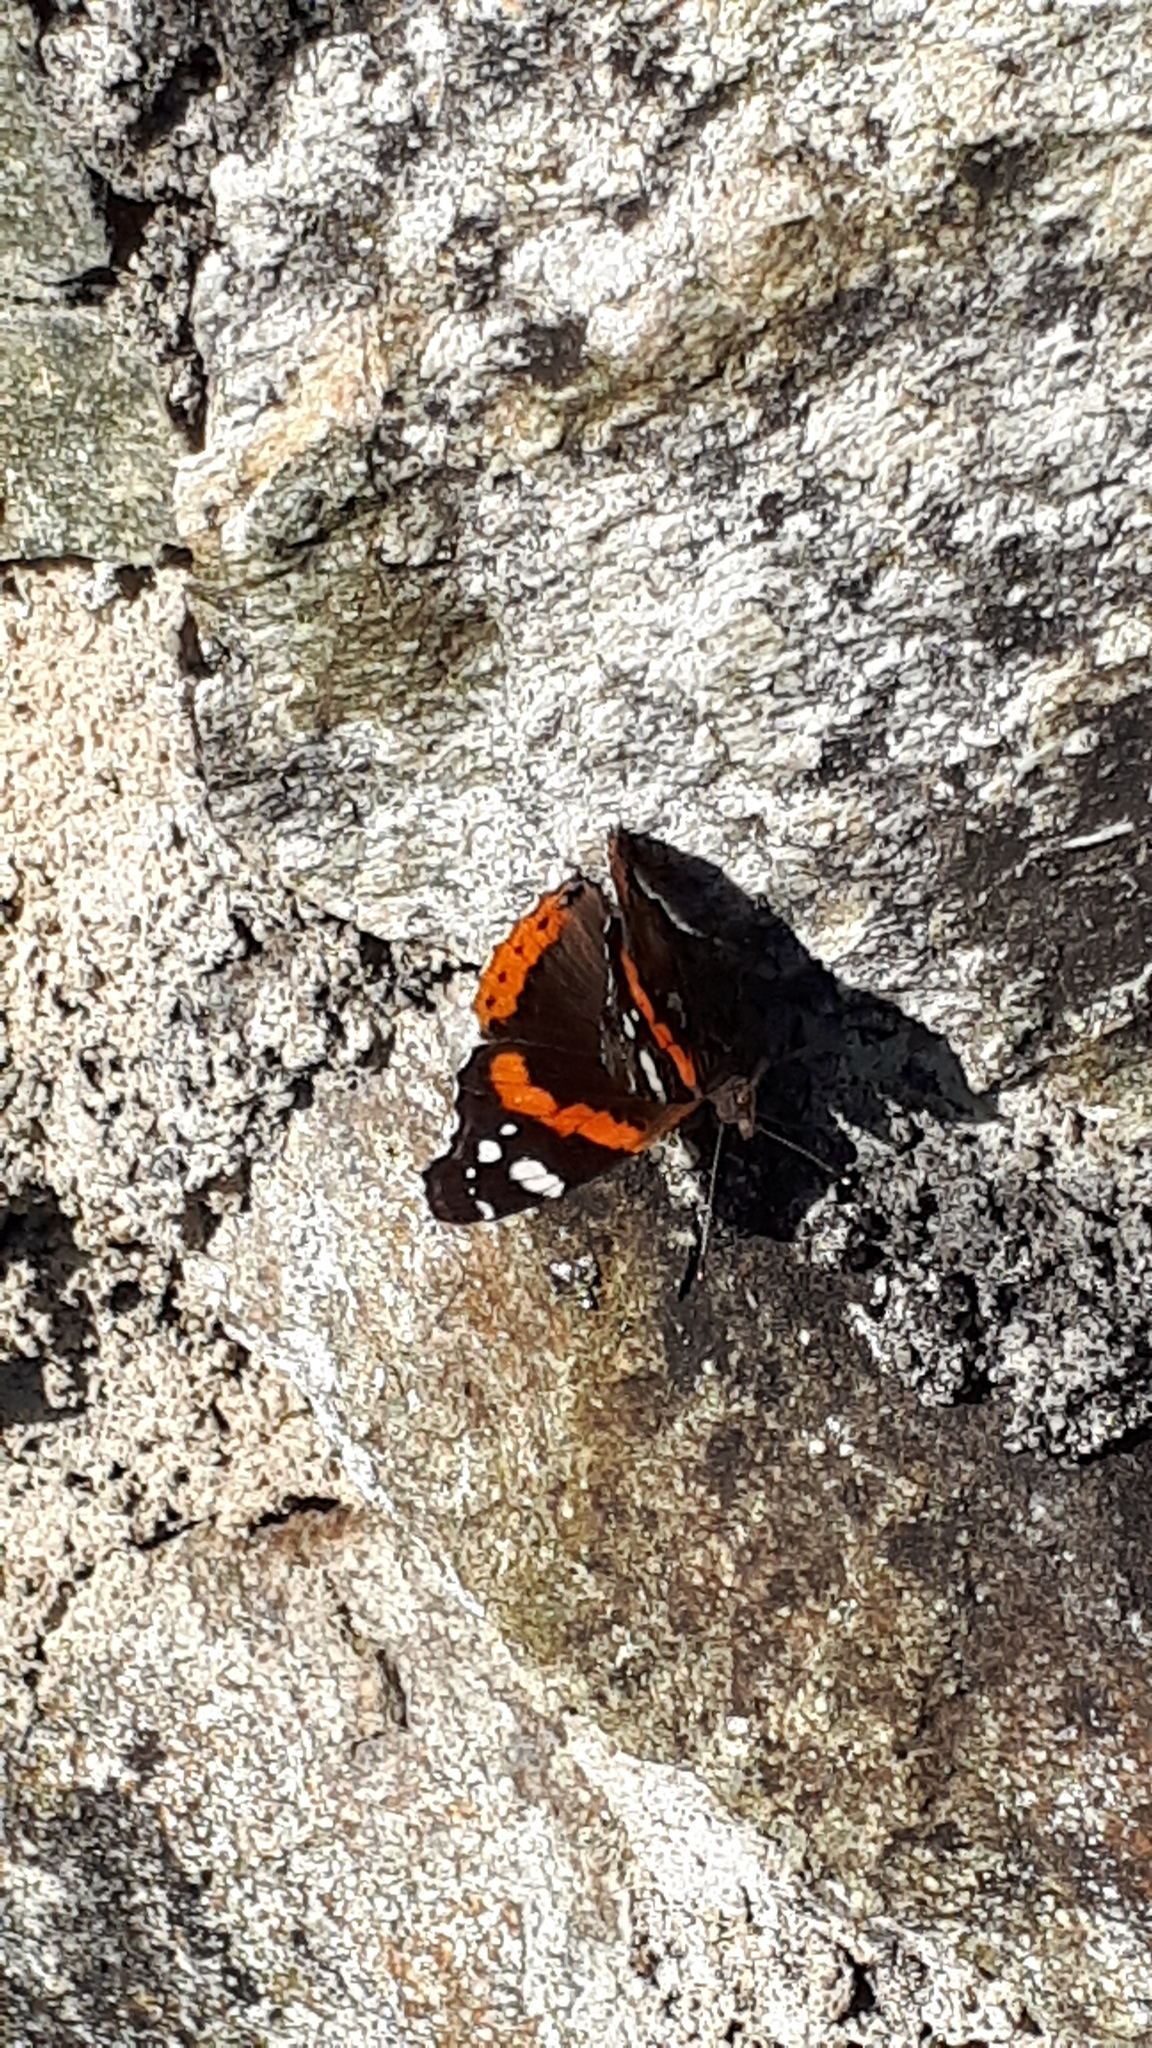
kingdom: Animalia
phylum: Arthropoda
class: Insecta
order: Lepidoptera
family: Nymphalidae
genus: Vanessa
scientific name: Vanessa atalanta
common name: Red admiral
